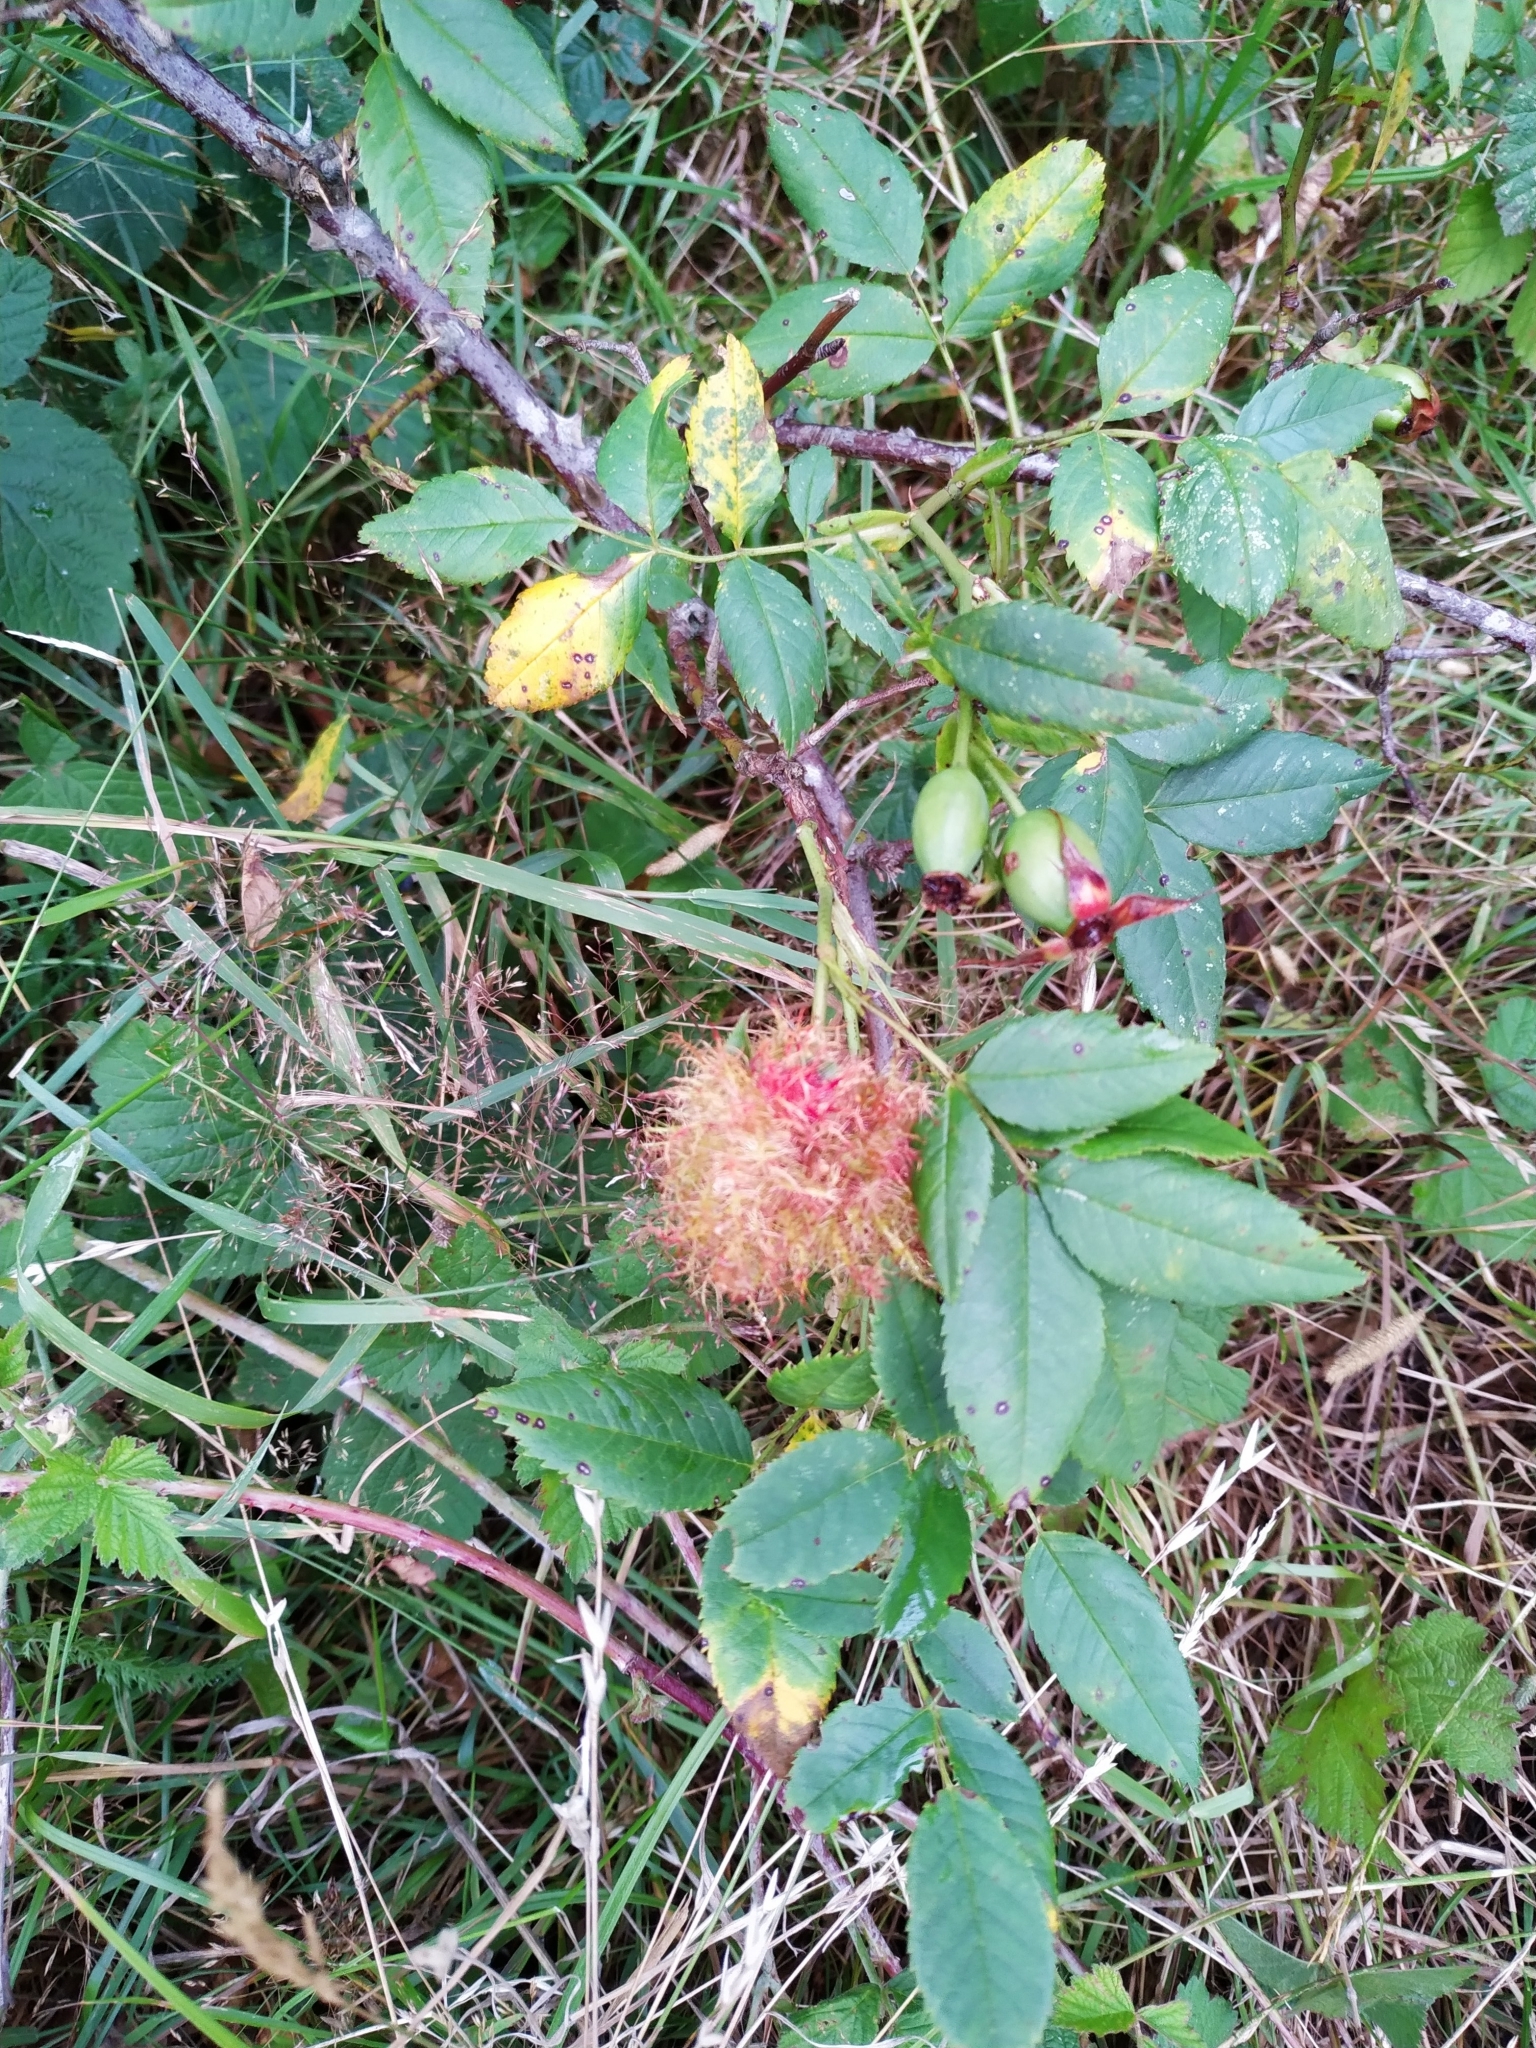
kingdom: Animalia
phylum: Arthropoda
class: Insecta
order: Hymenoptera
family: Cynipidae
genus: Diplolepis
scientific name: Diplolepis rosae
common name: Bedeguar gall
